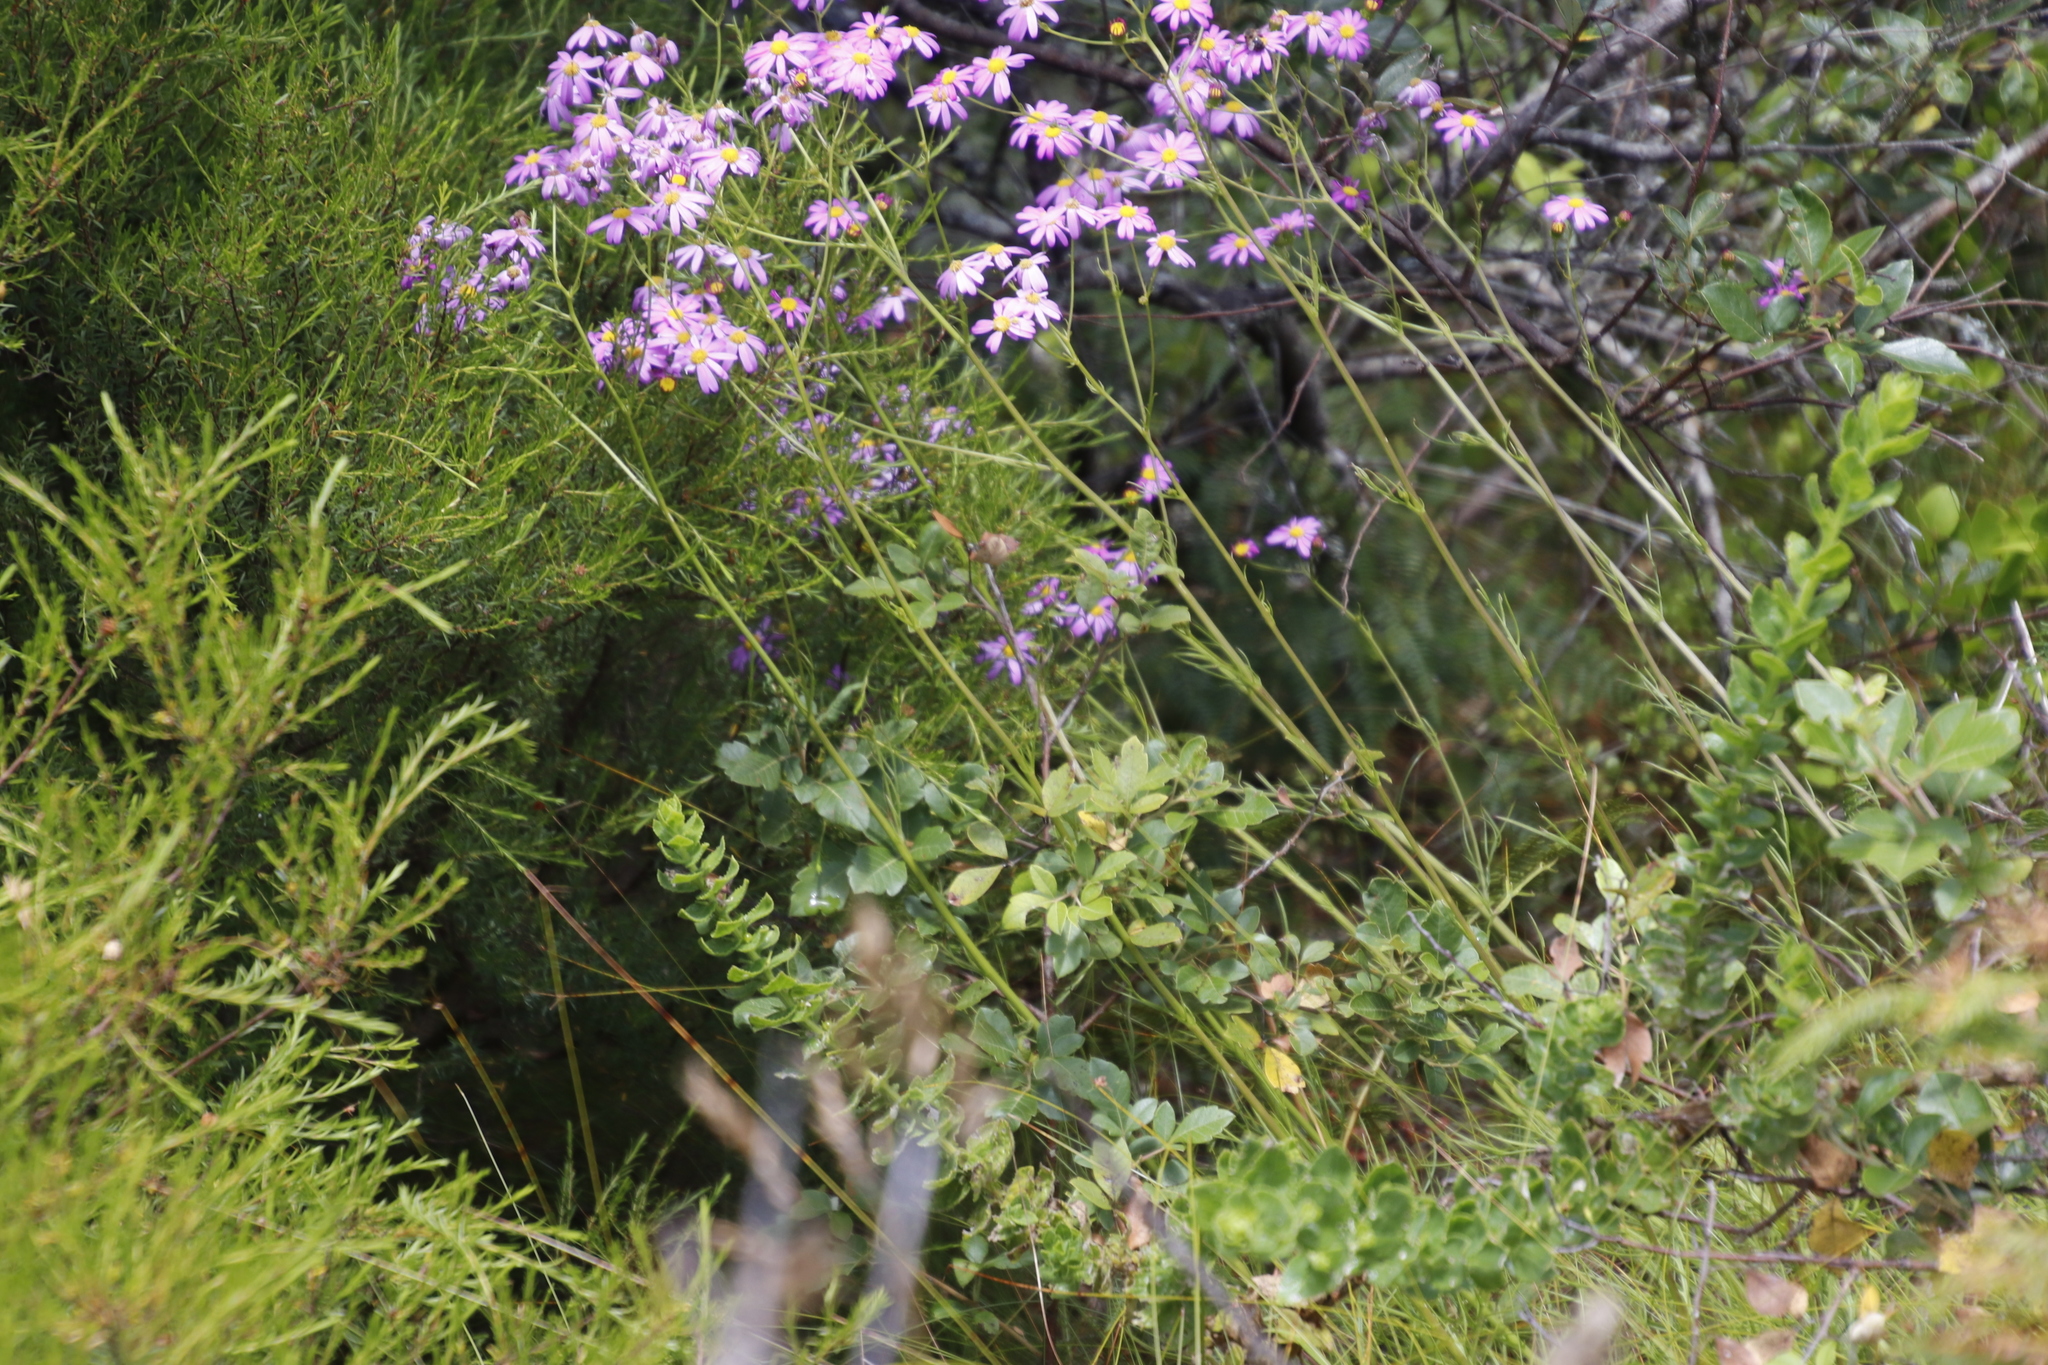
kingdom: Plantae
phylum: Tracheophyta
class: Magnoliopsida
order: Asterales
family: Asteraceae
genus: Senecio
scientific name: Senecio umbellatus
